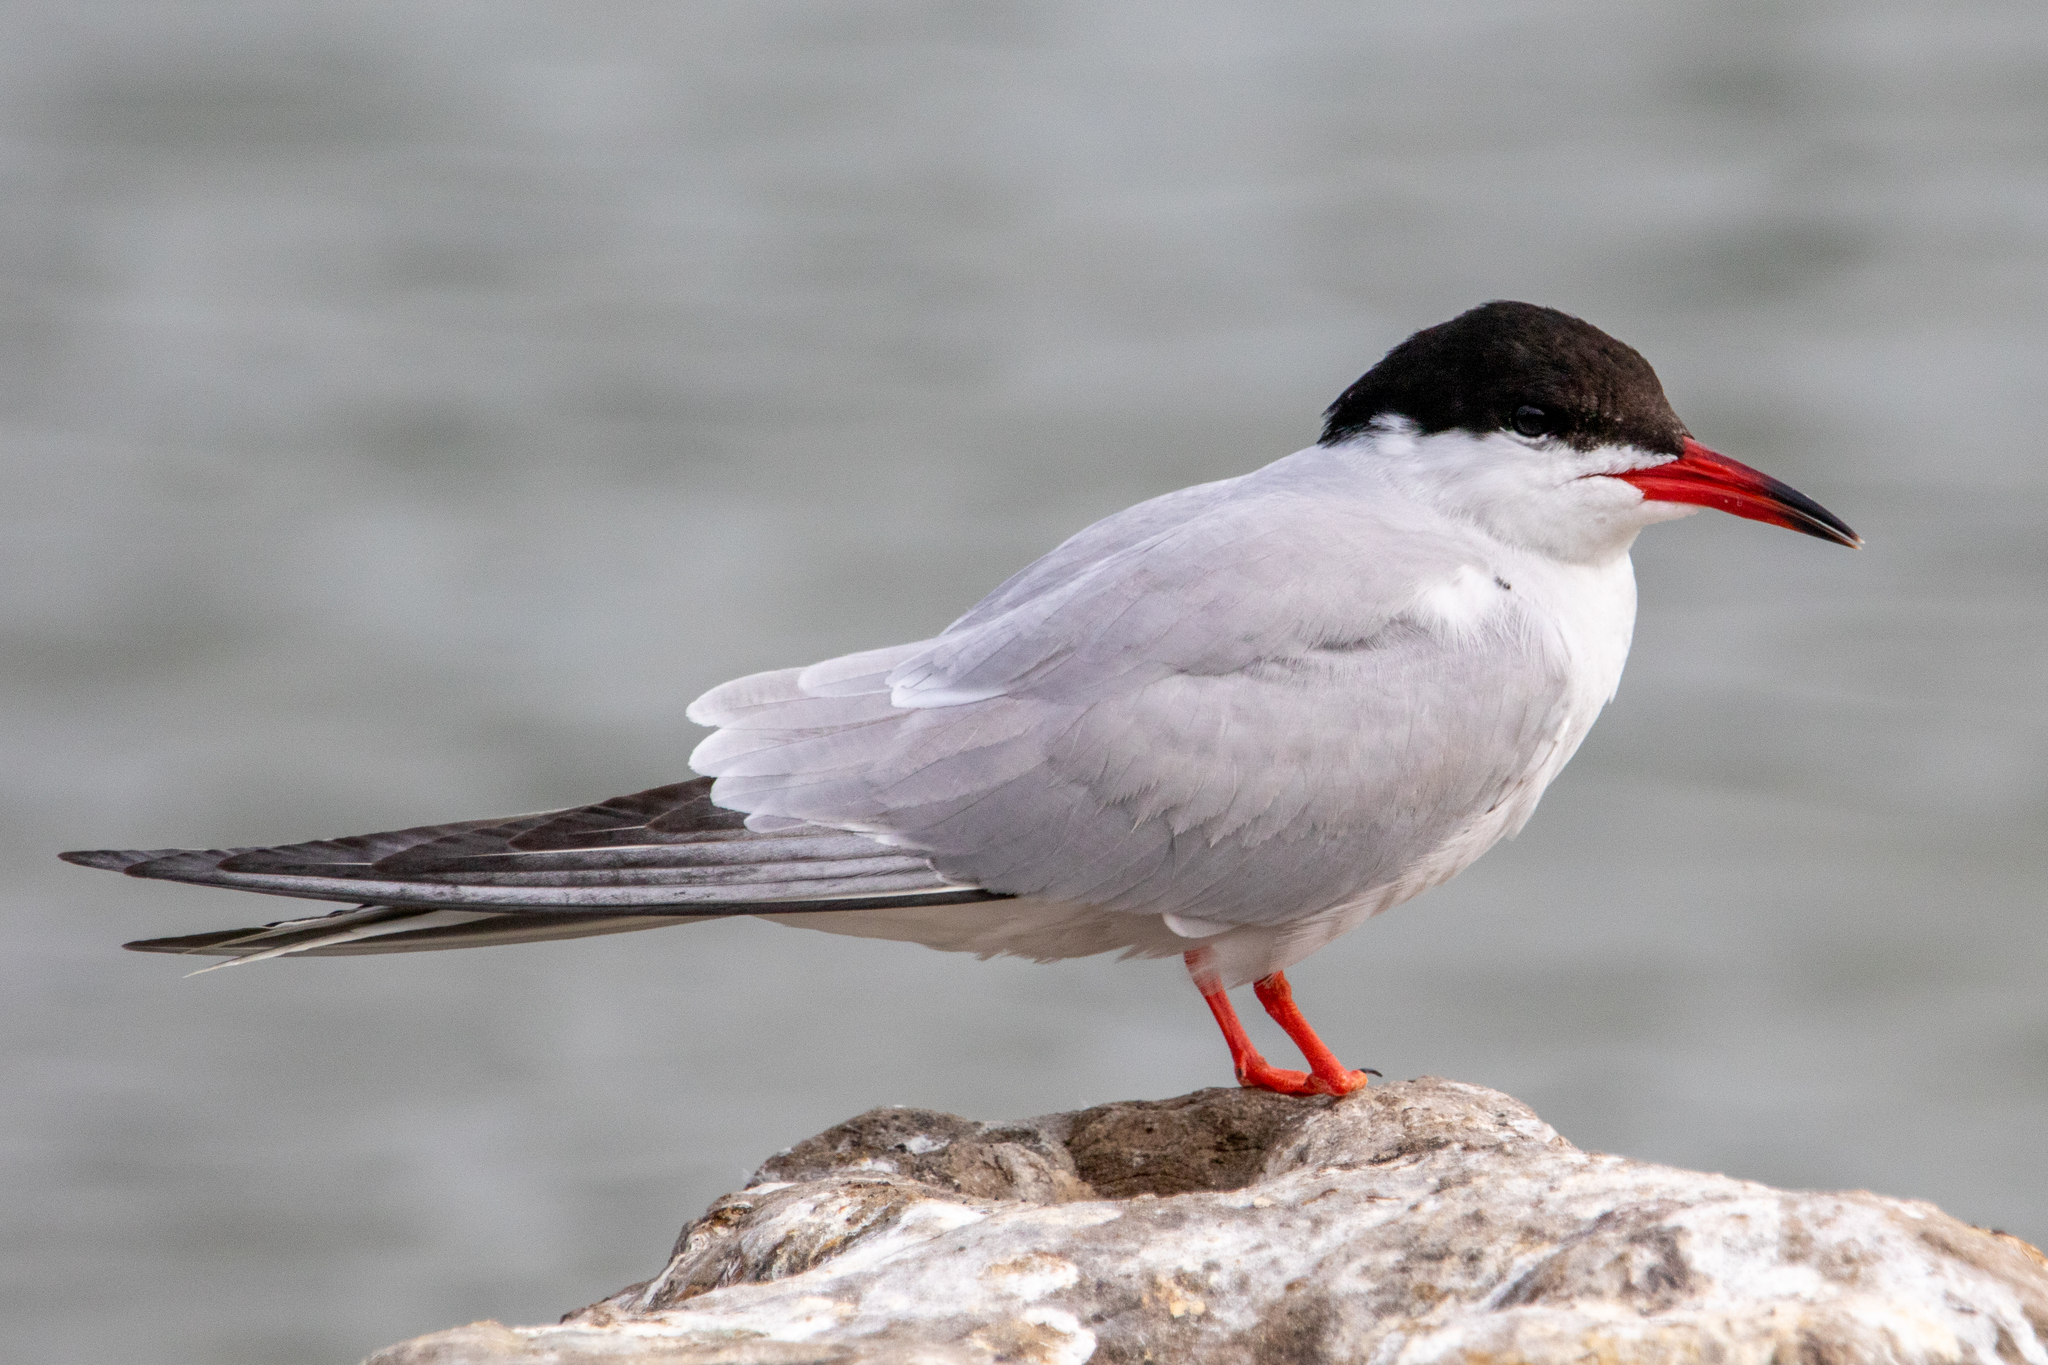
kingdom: Animalia
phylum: Chordata
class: Aves
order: Charadriiformes
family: Laridae
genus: Sterna
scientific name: Sterna hirundo
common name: Common tern
